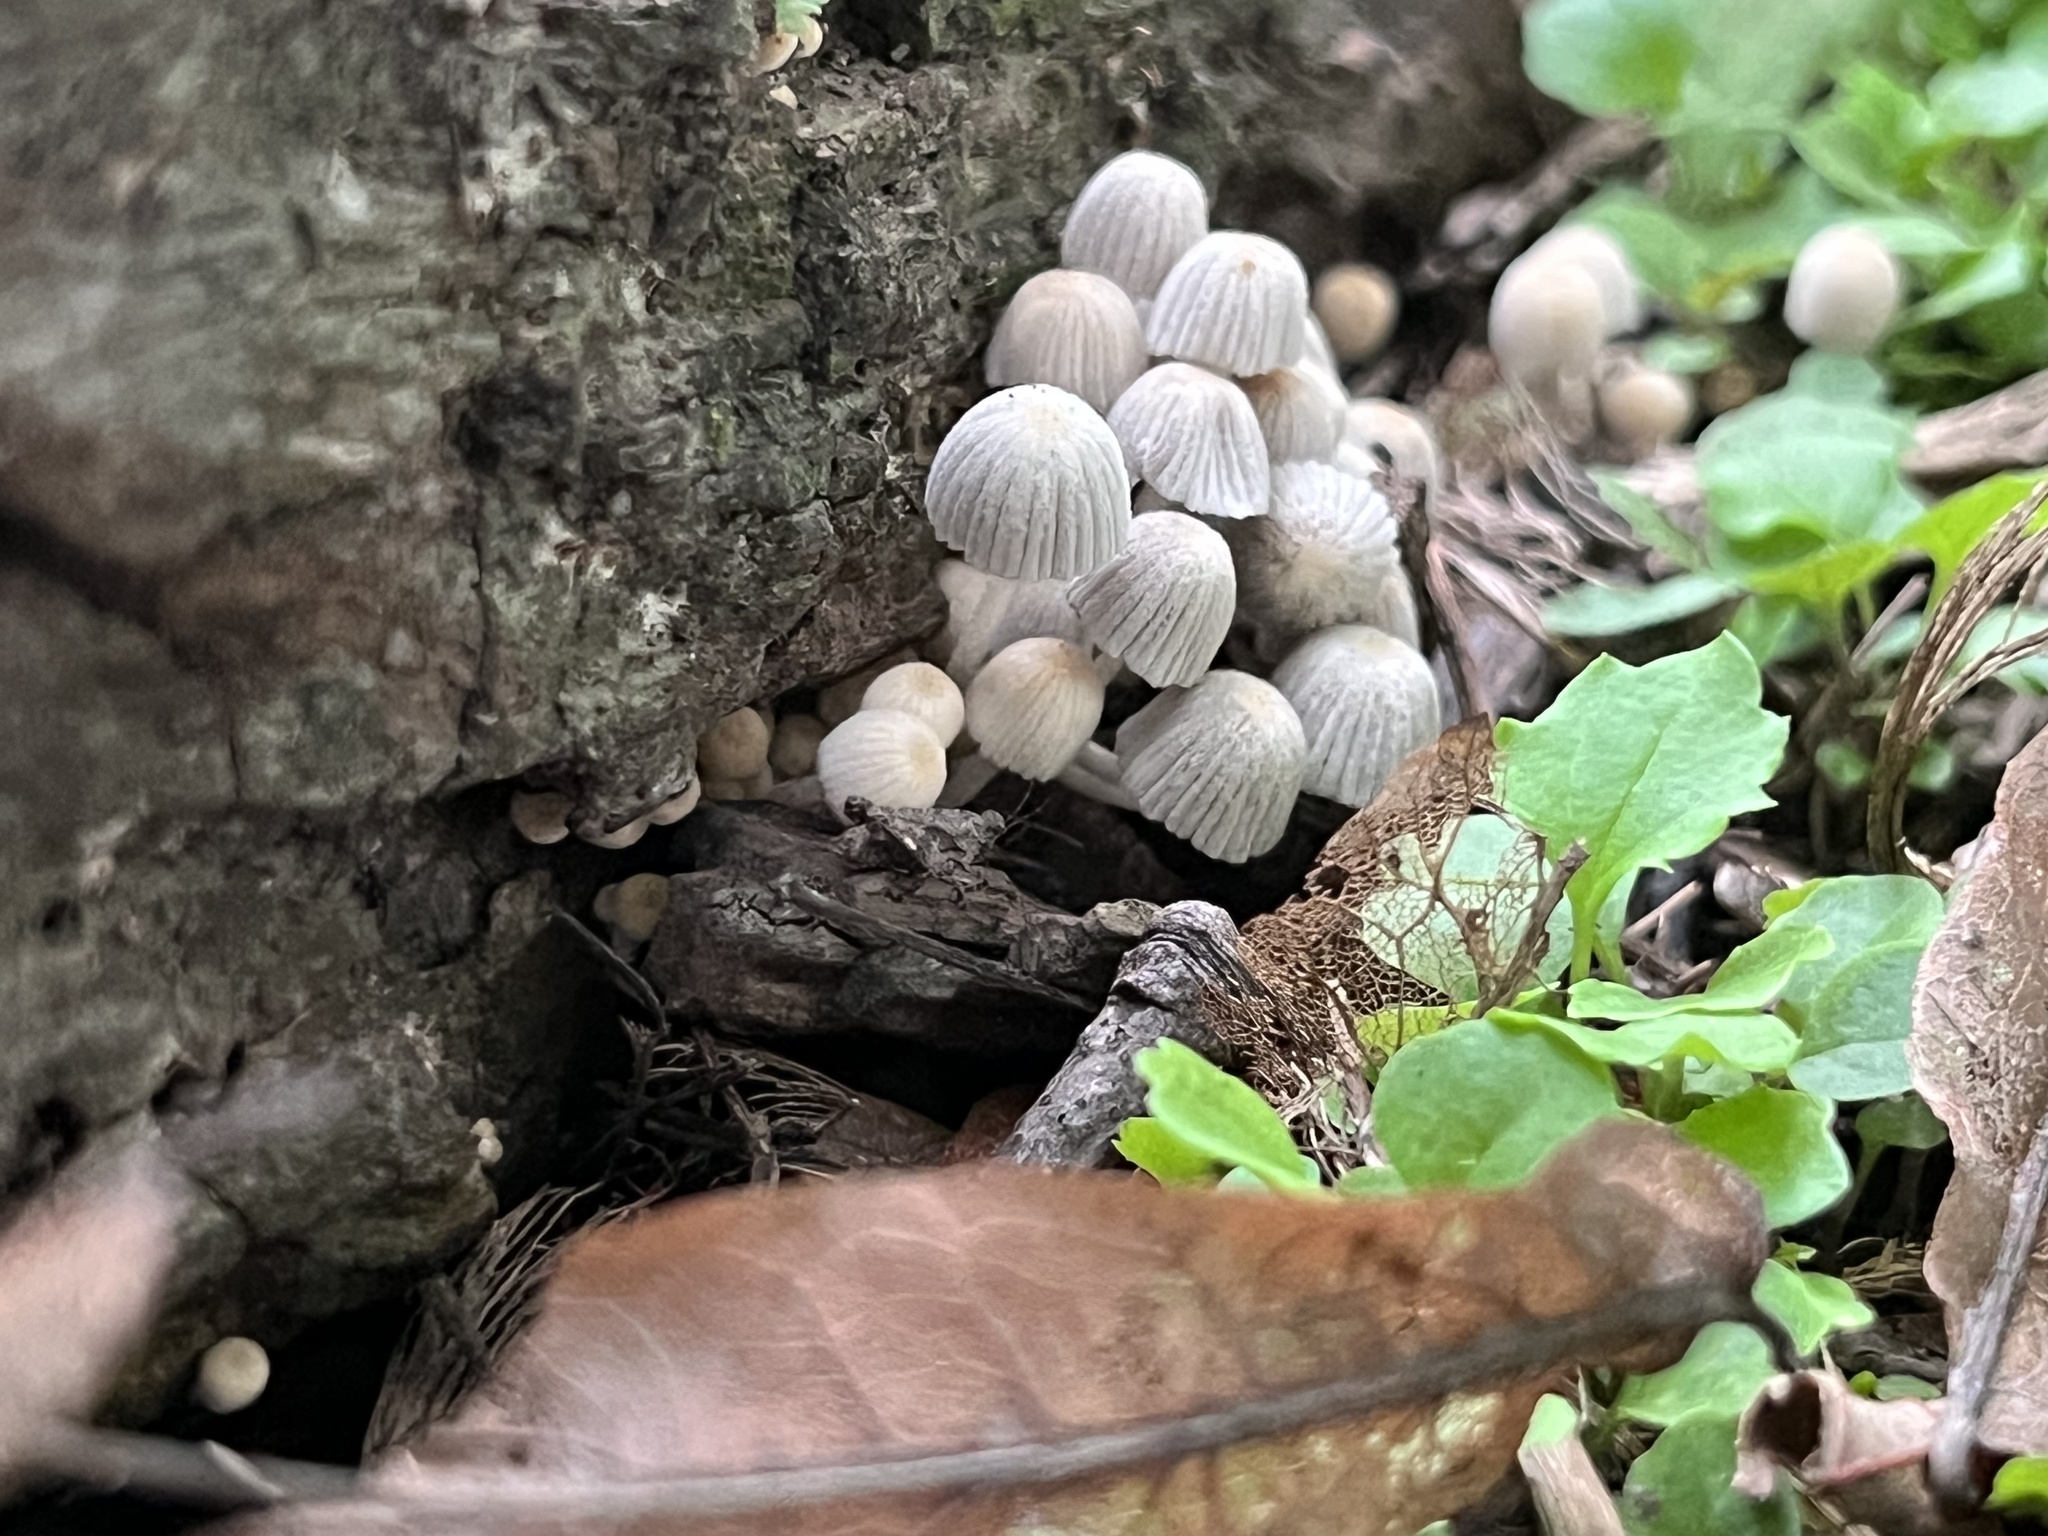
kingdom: Fungi
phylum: Basidiomycota
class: Agaricomycetes
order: Agaricales
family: Psathyrellaceae
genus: Coprinellus
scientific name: Coprinellus disseminatus
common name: Fairies' bonnets
